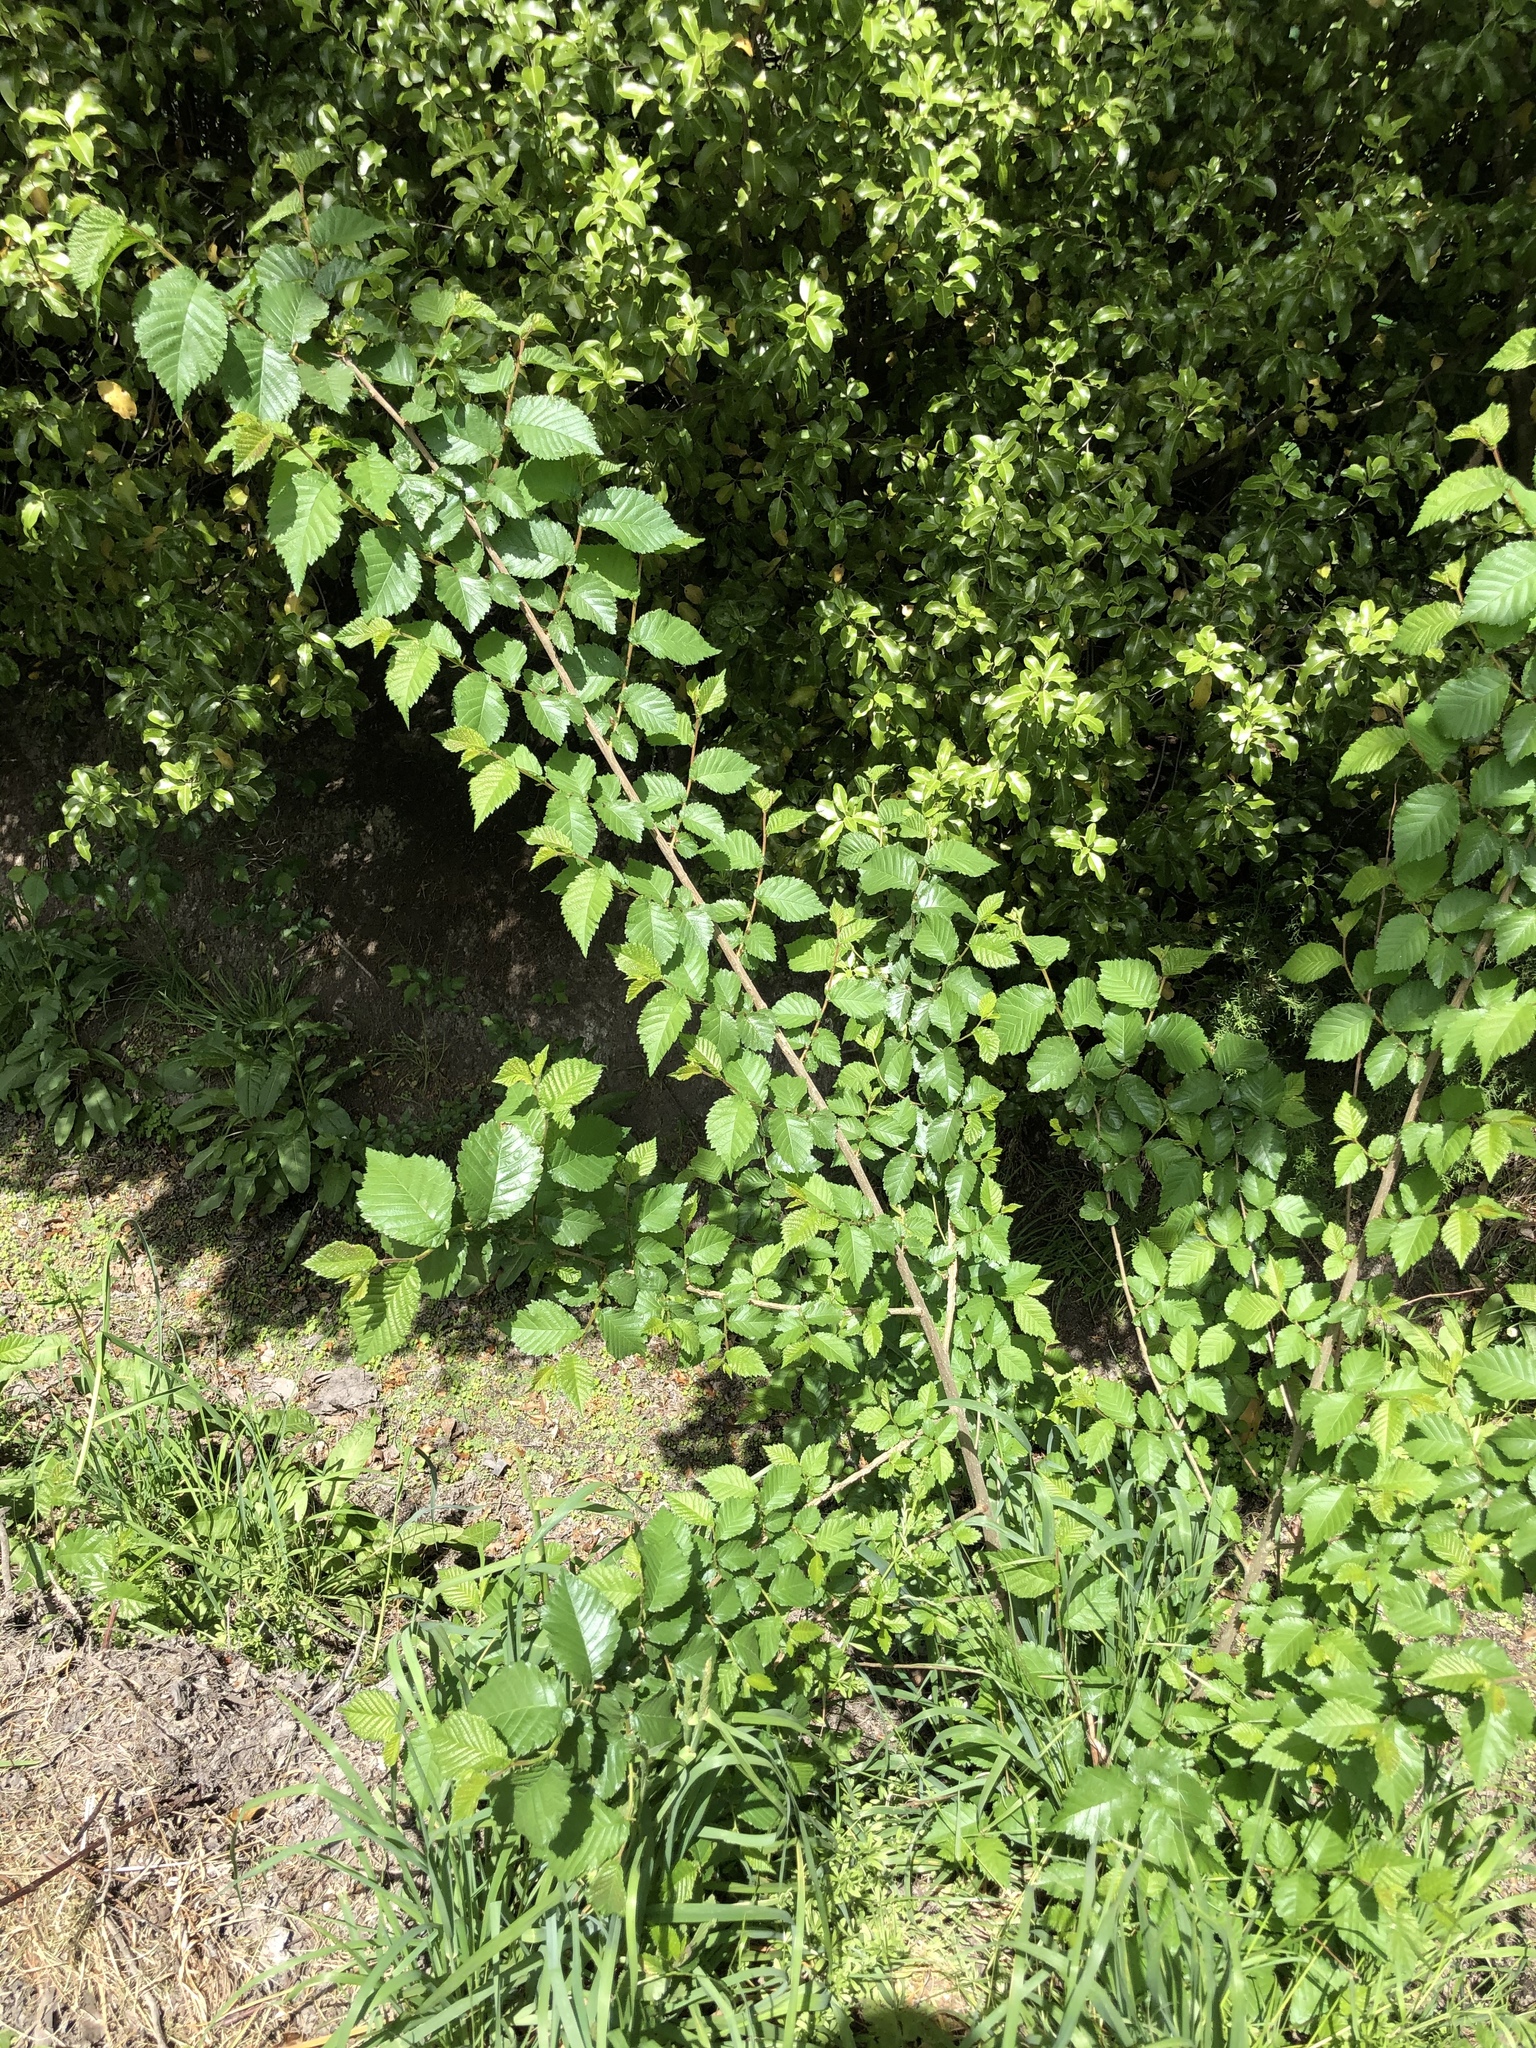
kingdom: Plantae
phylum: Tracheophyta
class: Magnoliopsida
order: Rosales
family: Ulmaceae
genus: Ulmus
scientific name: Ulmus hollandica
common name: Dutch elm
